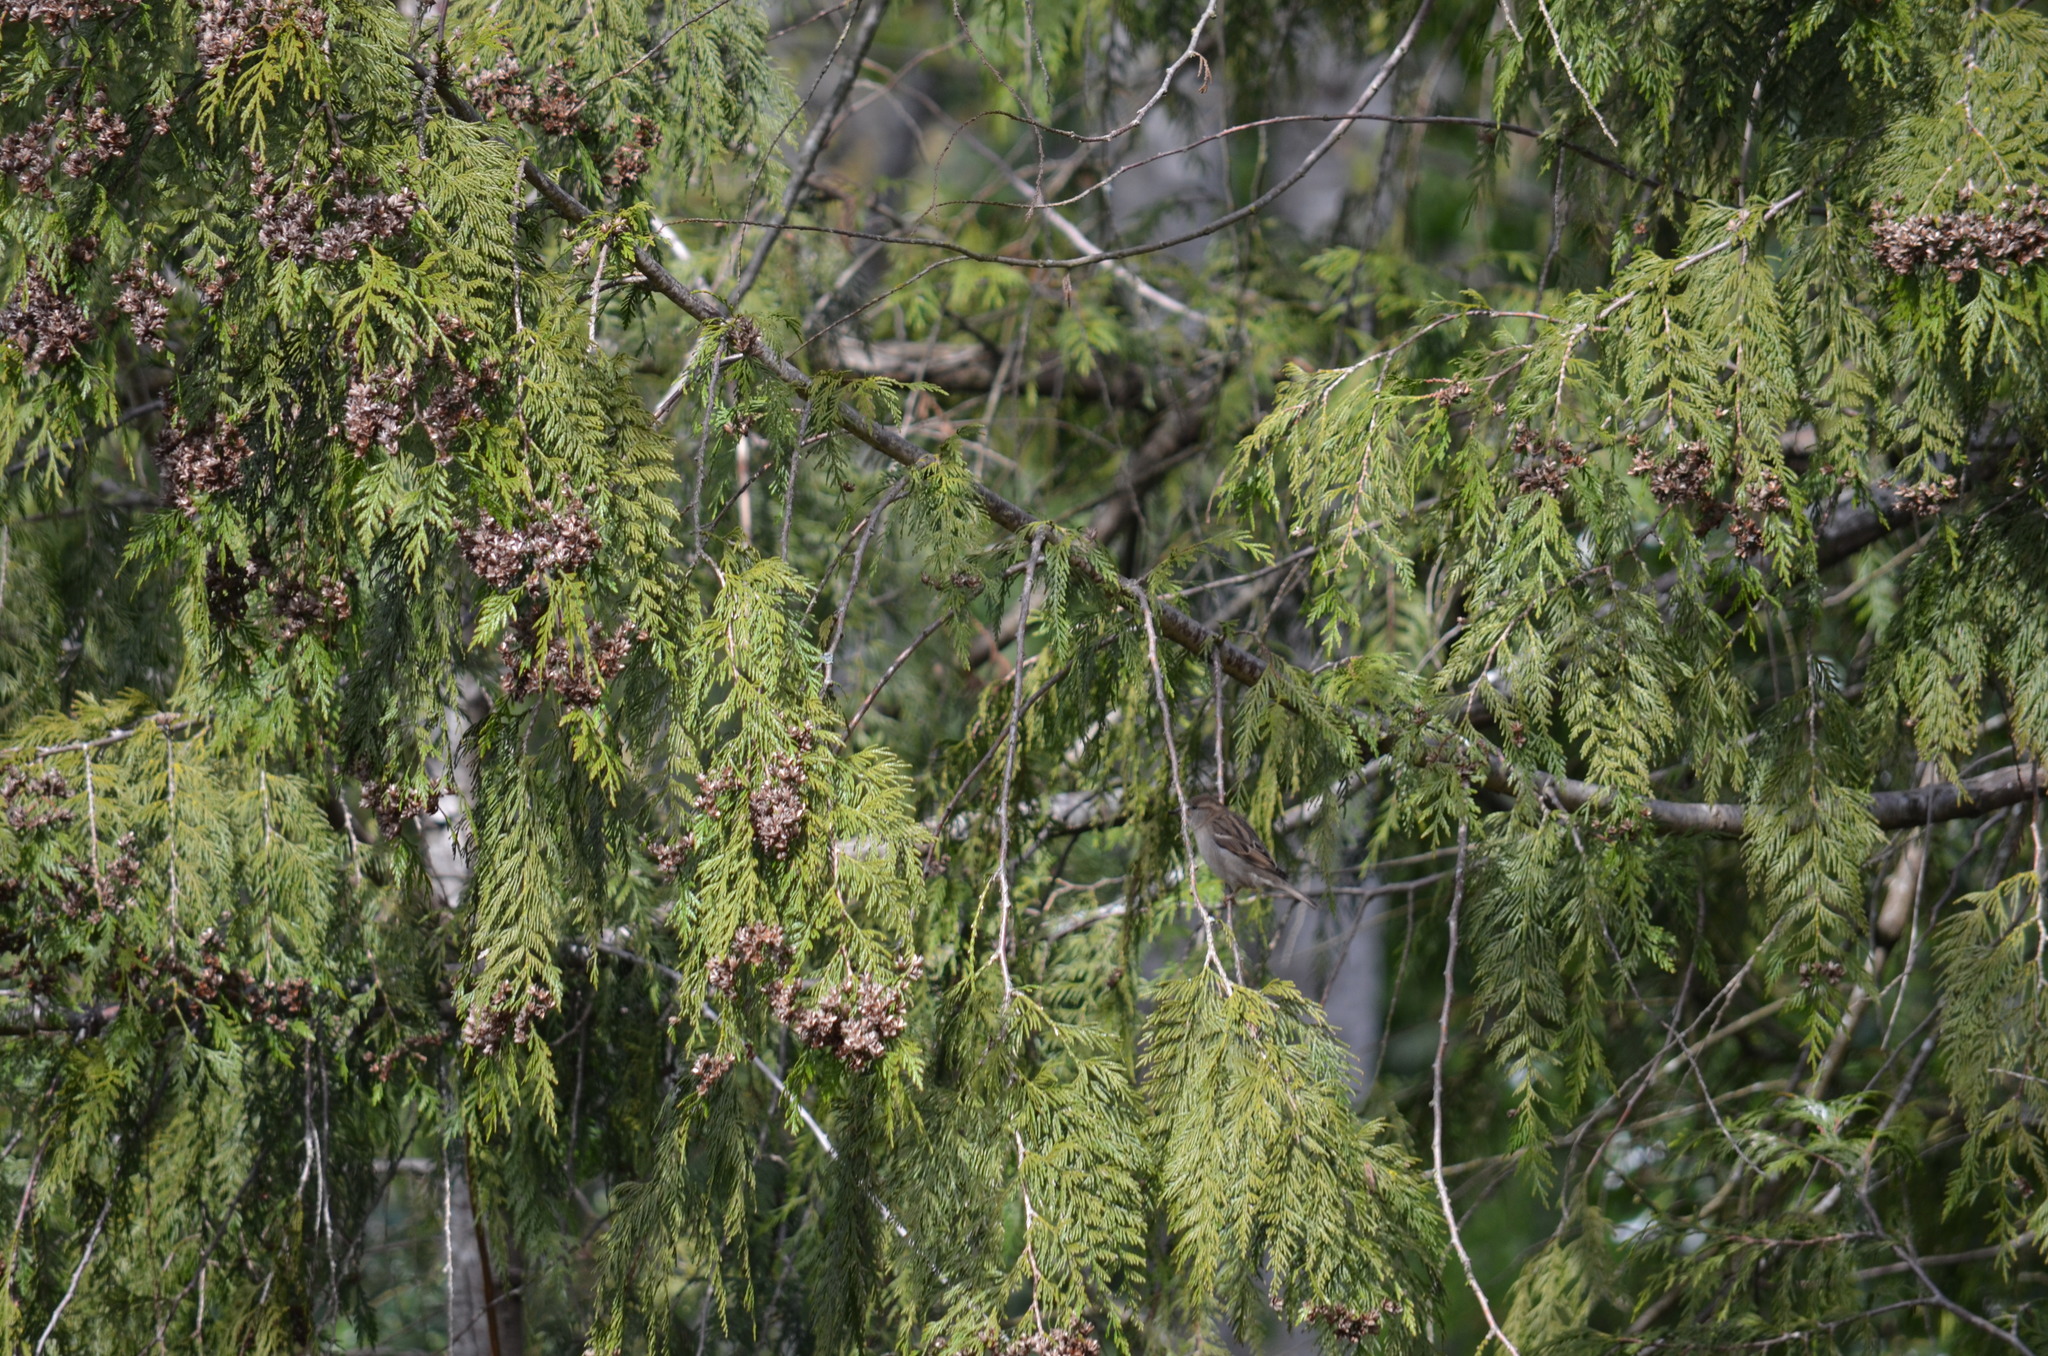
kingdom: Animalia
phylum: Chordata
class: Aves
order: Passeriformes
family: Passeridae
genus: Passer
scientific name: Passer domesticus
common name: House sparrow
